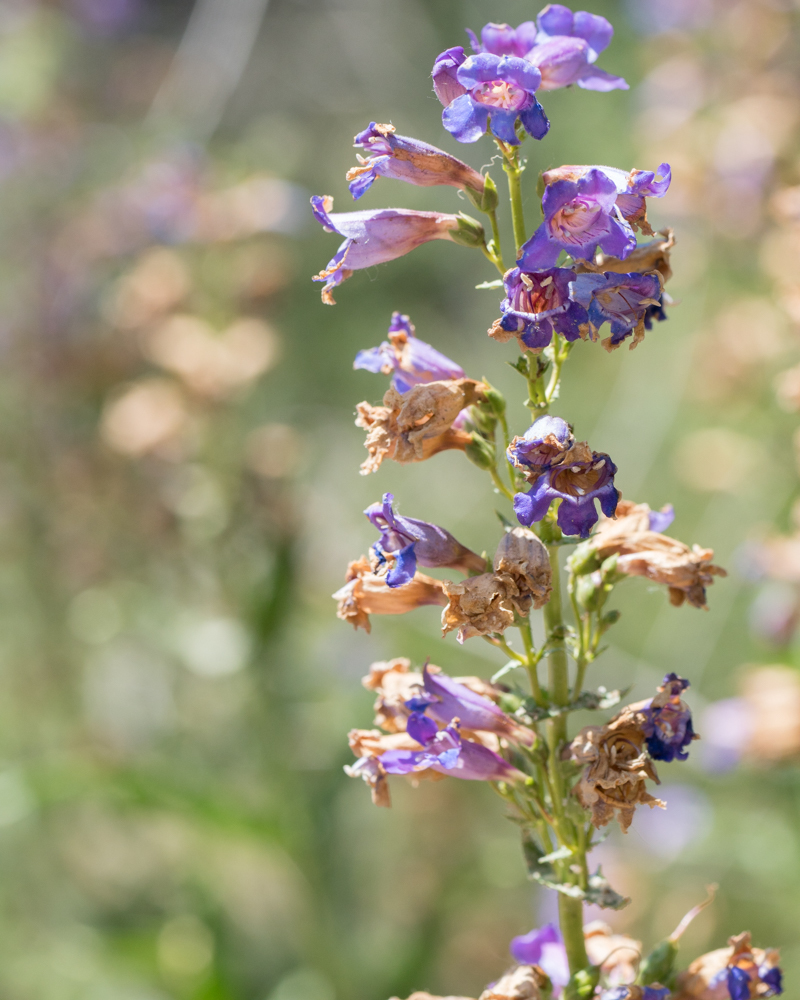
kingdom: Plantae
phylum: Tracheophyta
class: Magnoliopsida
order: Lamiales
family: Plantaginaceae
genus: Penstemon
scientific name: Penstemon spectabilis
